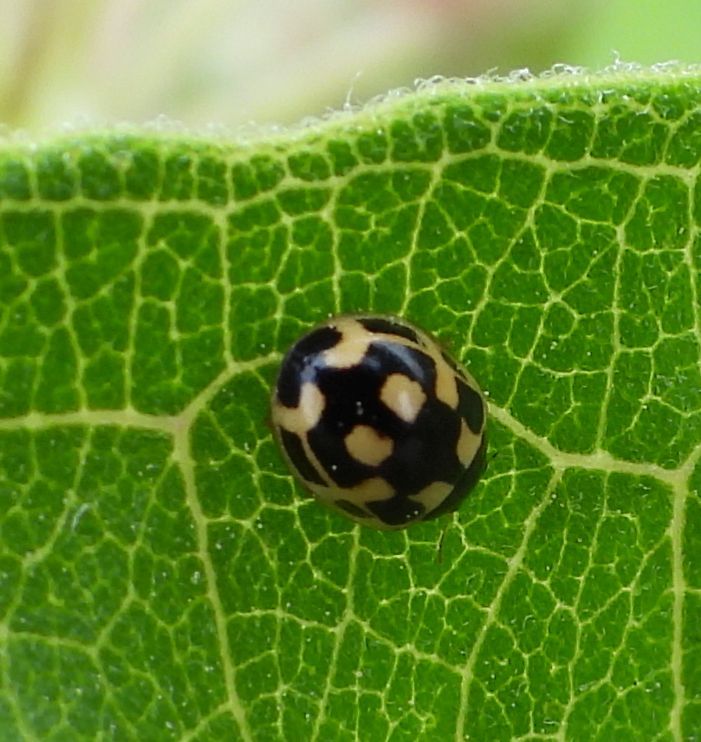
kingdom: Animalia
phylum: Arthropoda
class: Insecta
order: Coleoptera
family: Coccinellidae
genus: Propylaea
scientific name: Propylaea quatuordecimpunctata
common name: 14-spotted ladybird beetle
